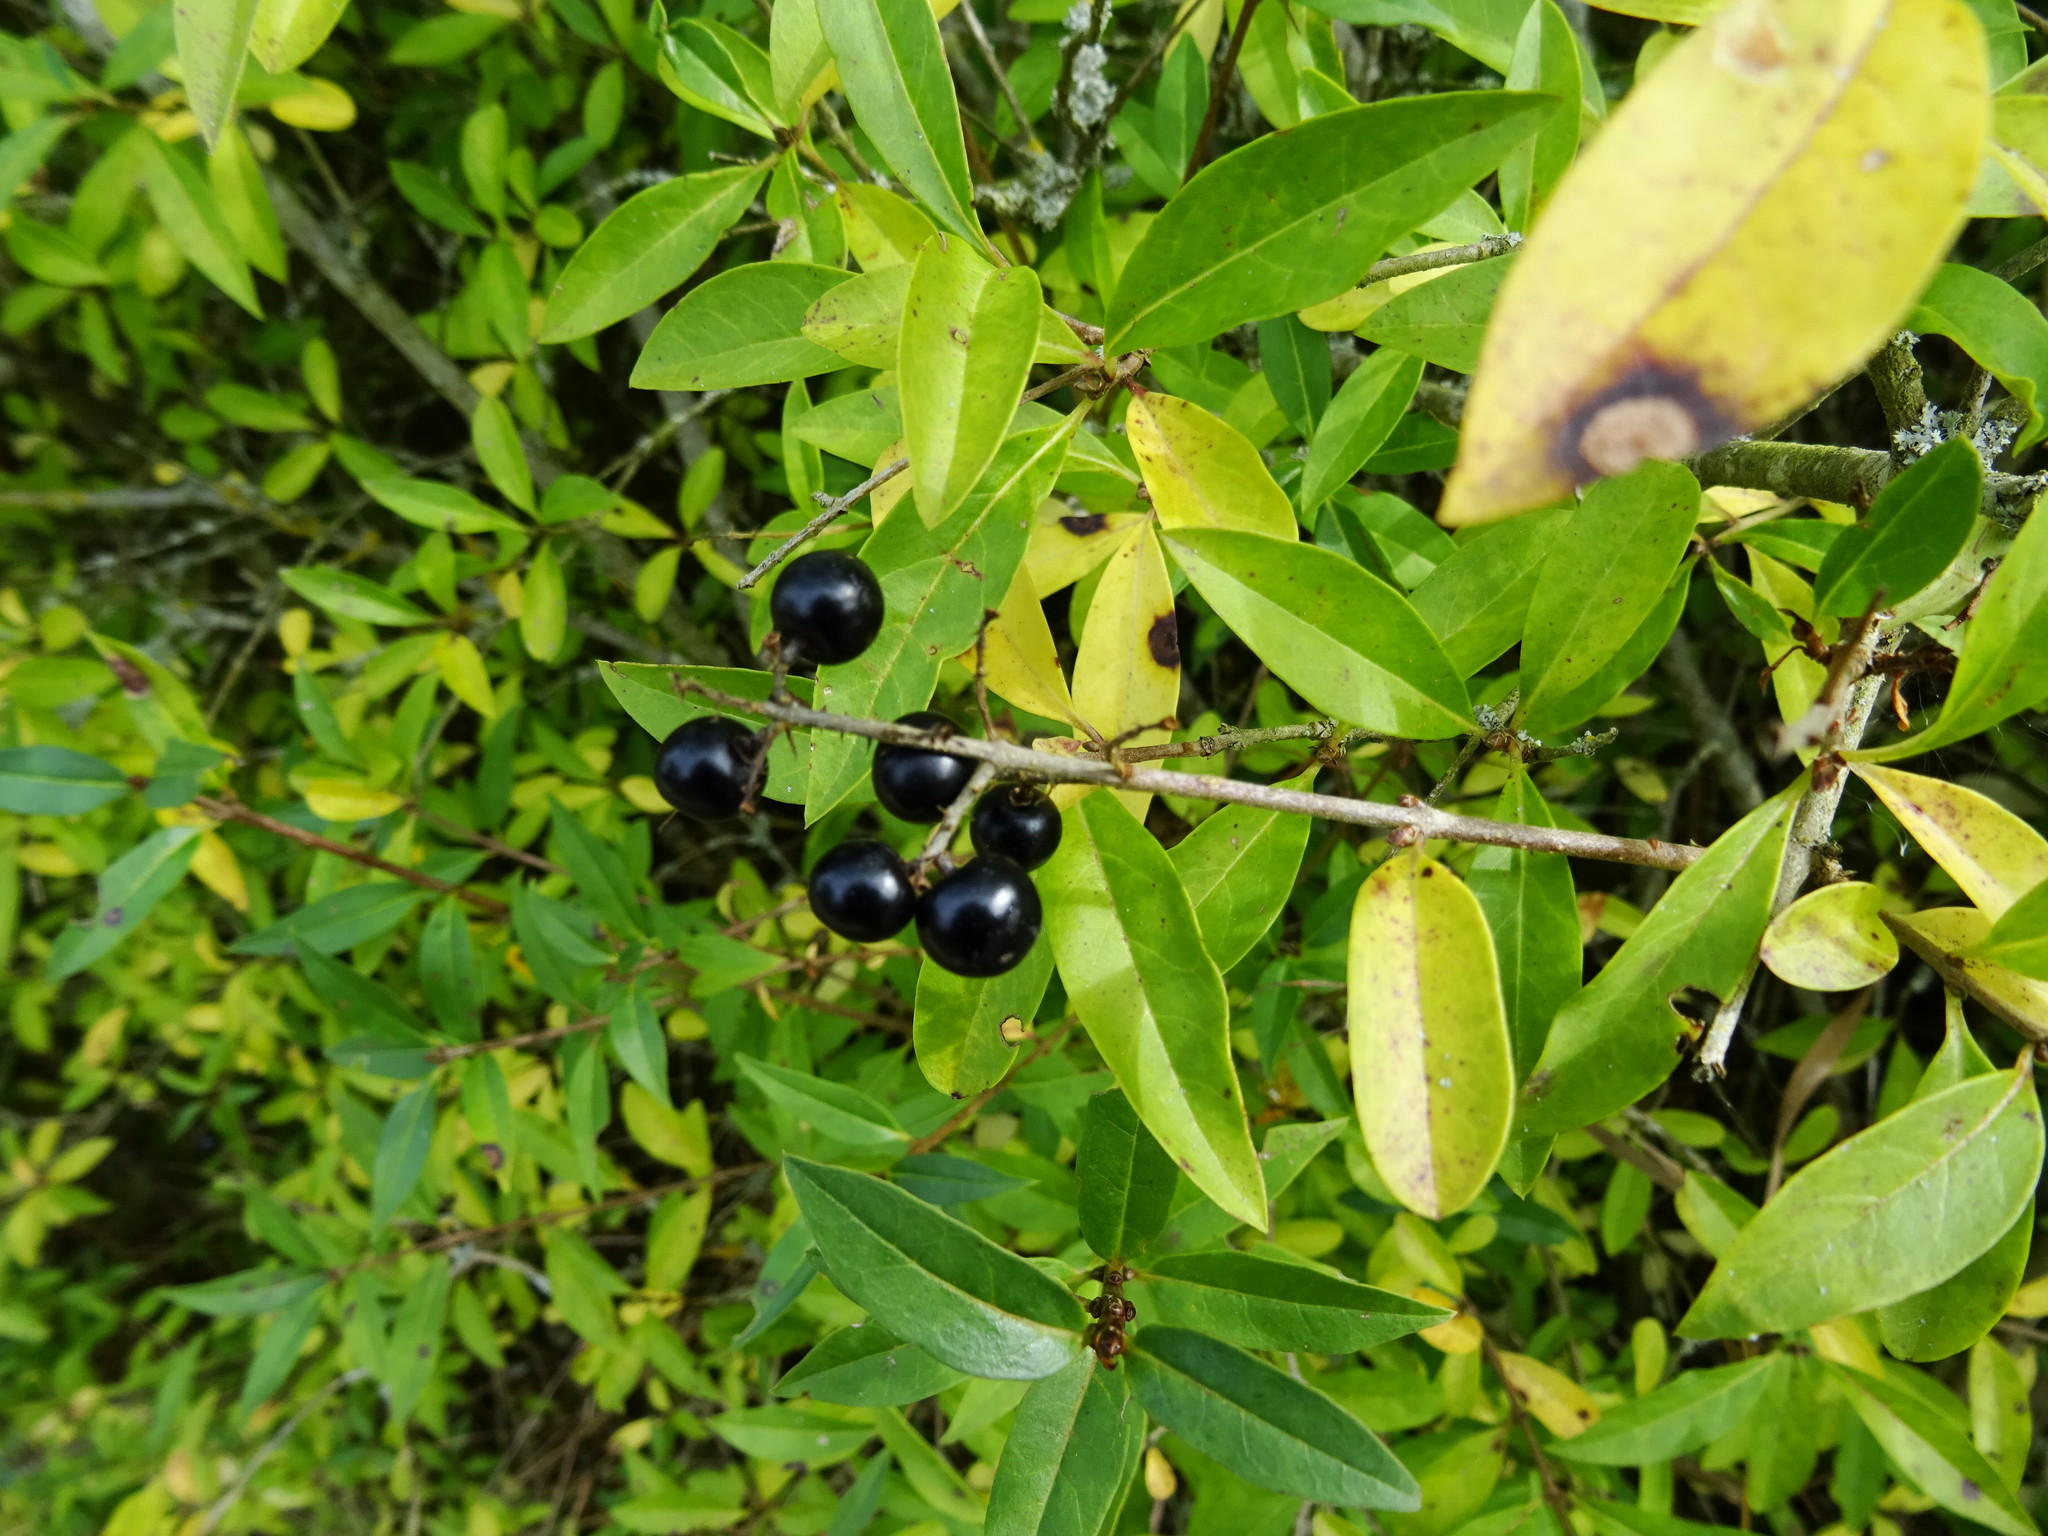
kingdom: Plantae
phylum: Tracheophyta
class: Magnoliopsida
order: Lamiales
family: Oleaceae
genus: Ligustrum
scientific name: Ligustrum vulgare
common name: Wild privet
